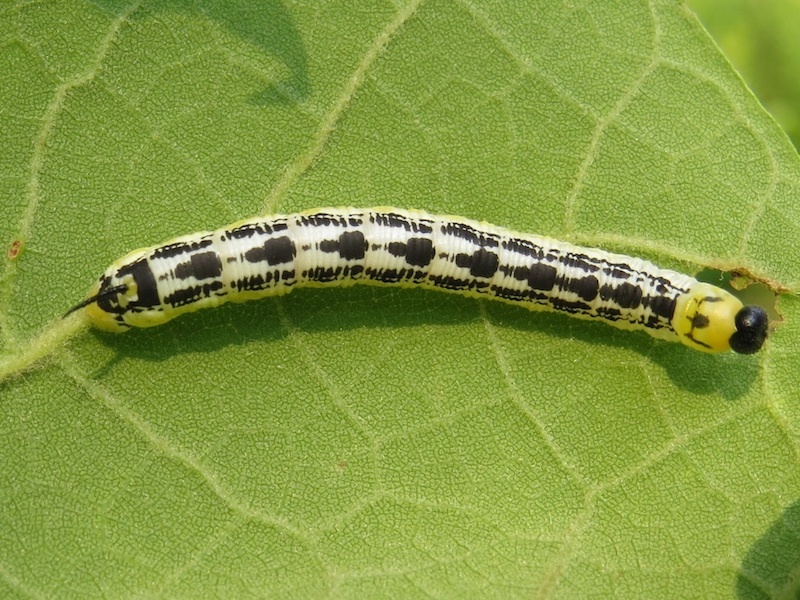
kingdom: Animalia
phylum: Arthropoda
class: Insecta
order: Lepidoptera
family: Sphingidae
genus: Ceratomia
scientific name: Ceratomia catalpae
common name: Catalpa hornworm
